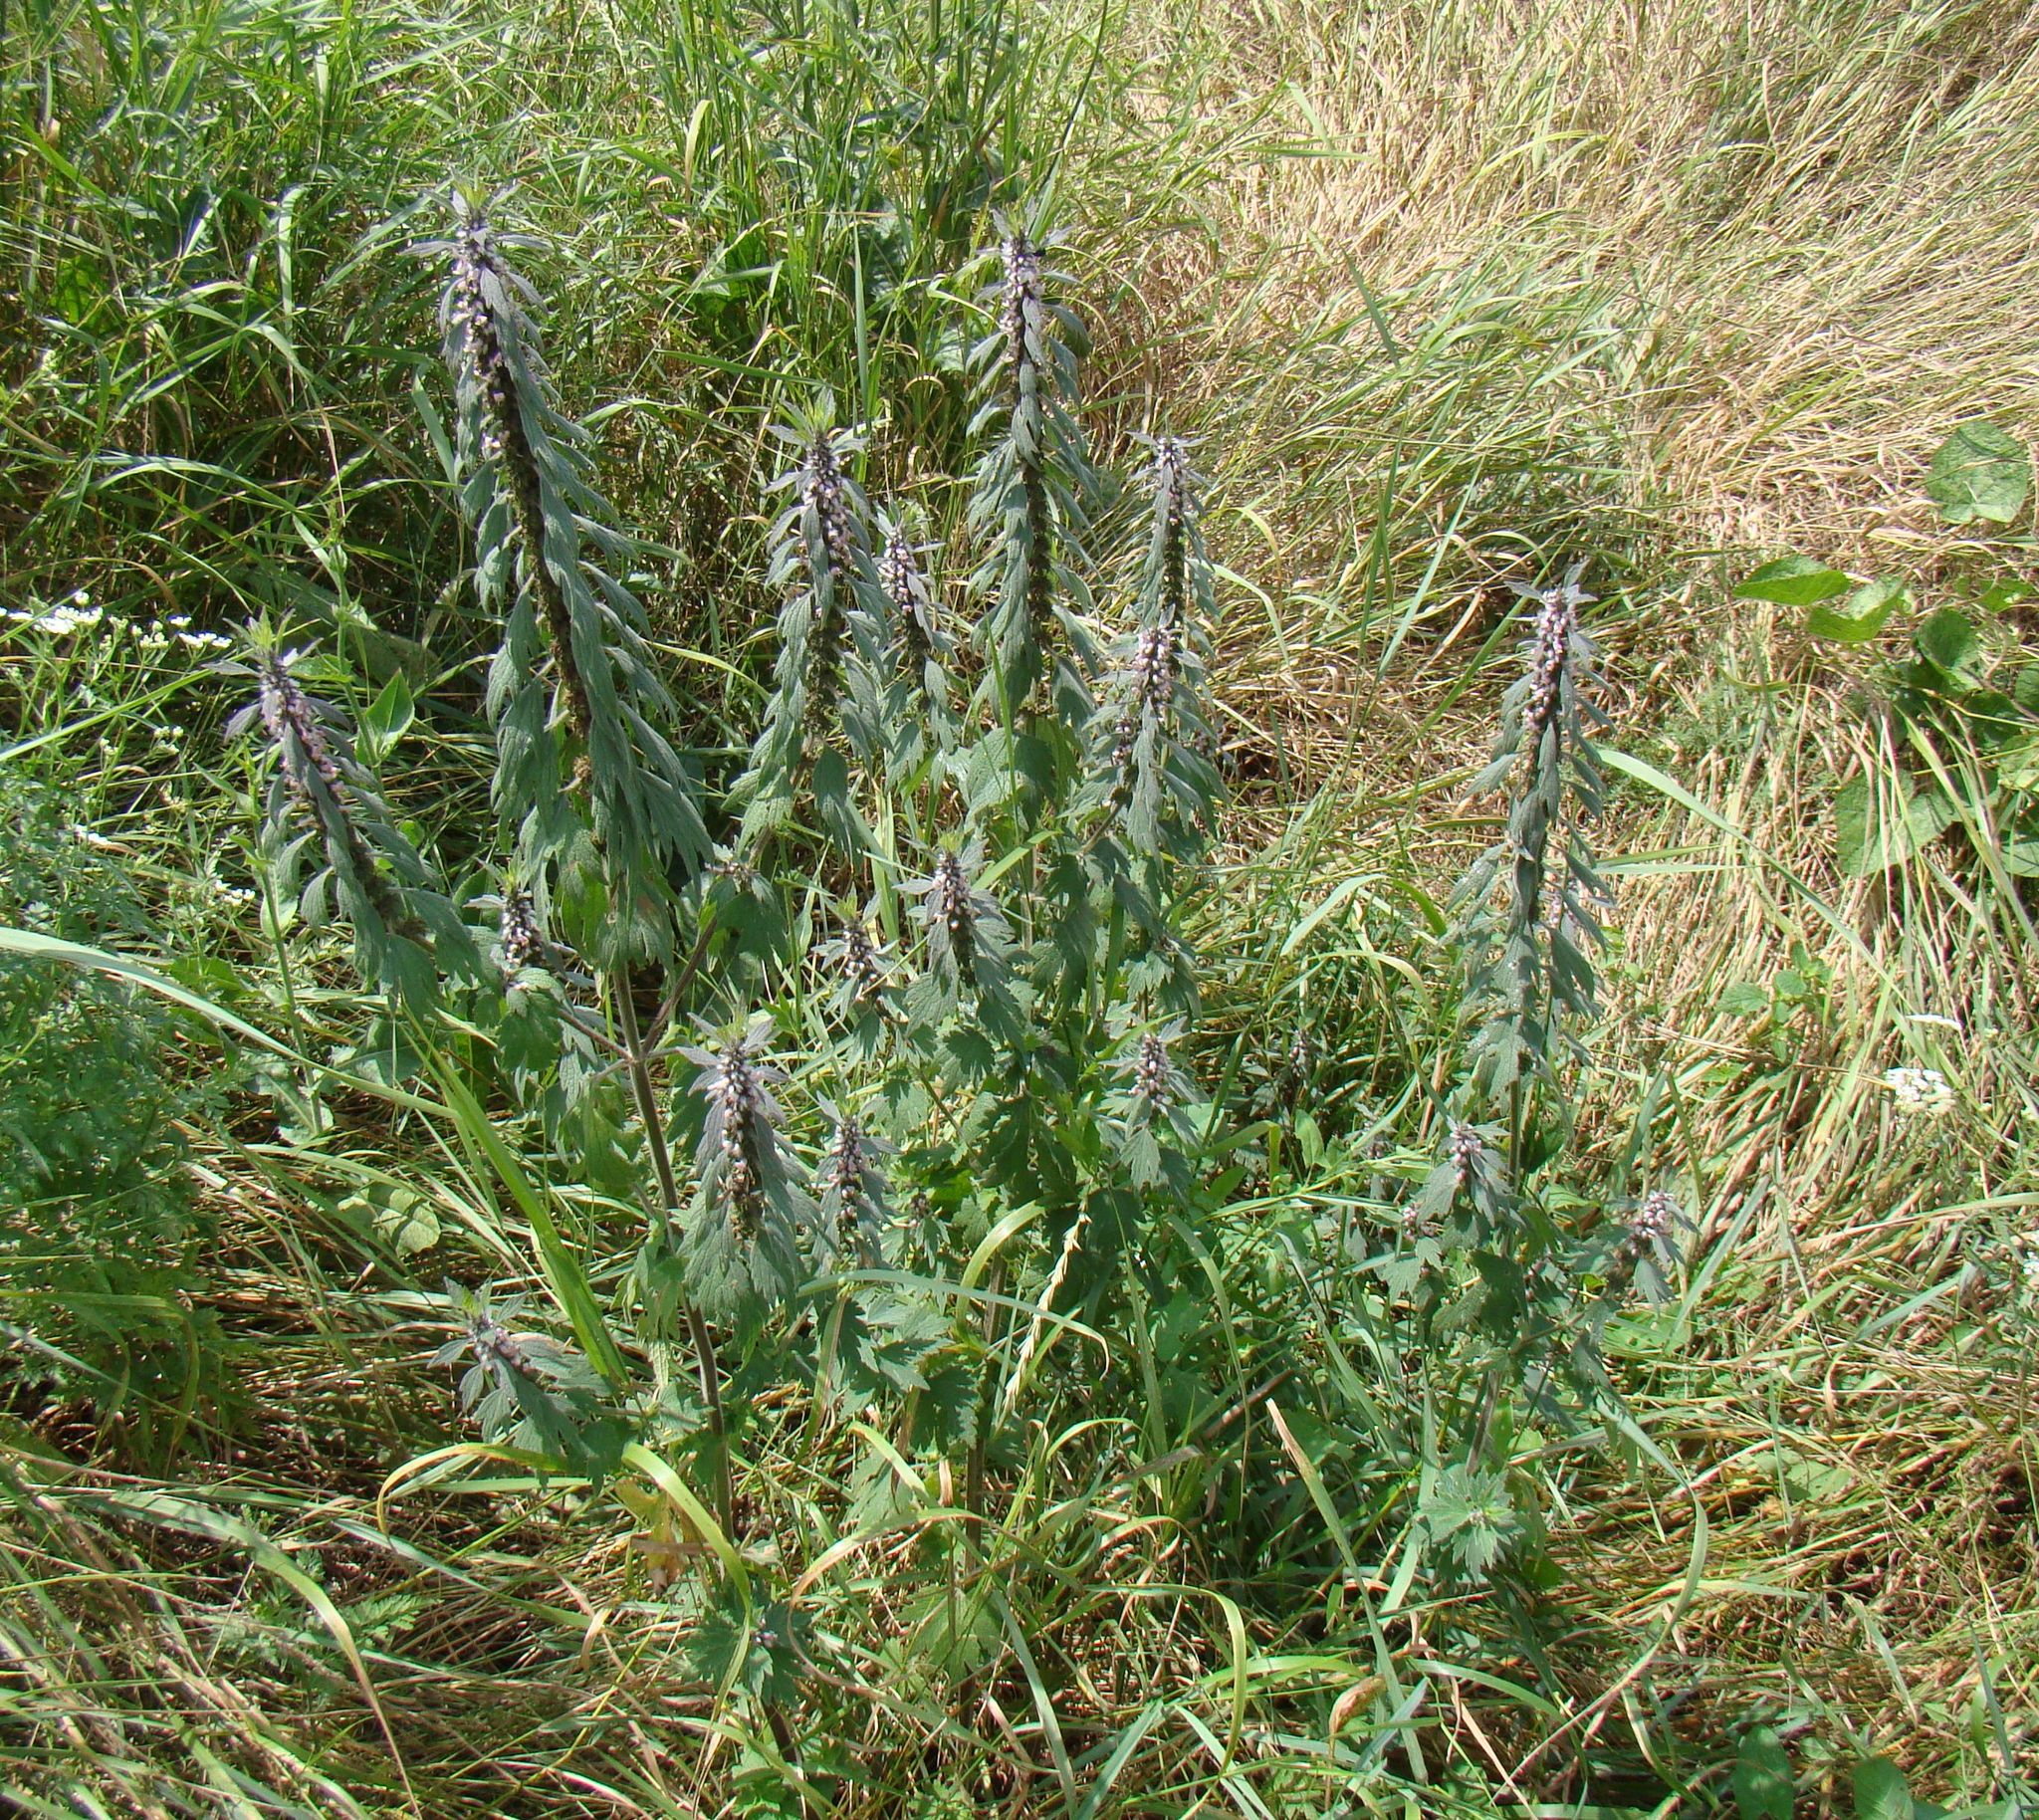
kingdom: Plantae
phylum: Tracheophyta
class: Magnoliopsida
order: Lamiales
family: Lamiaceae
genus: Leonurus
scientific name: Leonurus quinquelobatus
